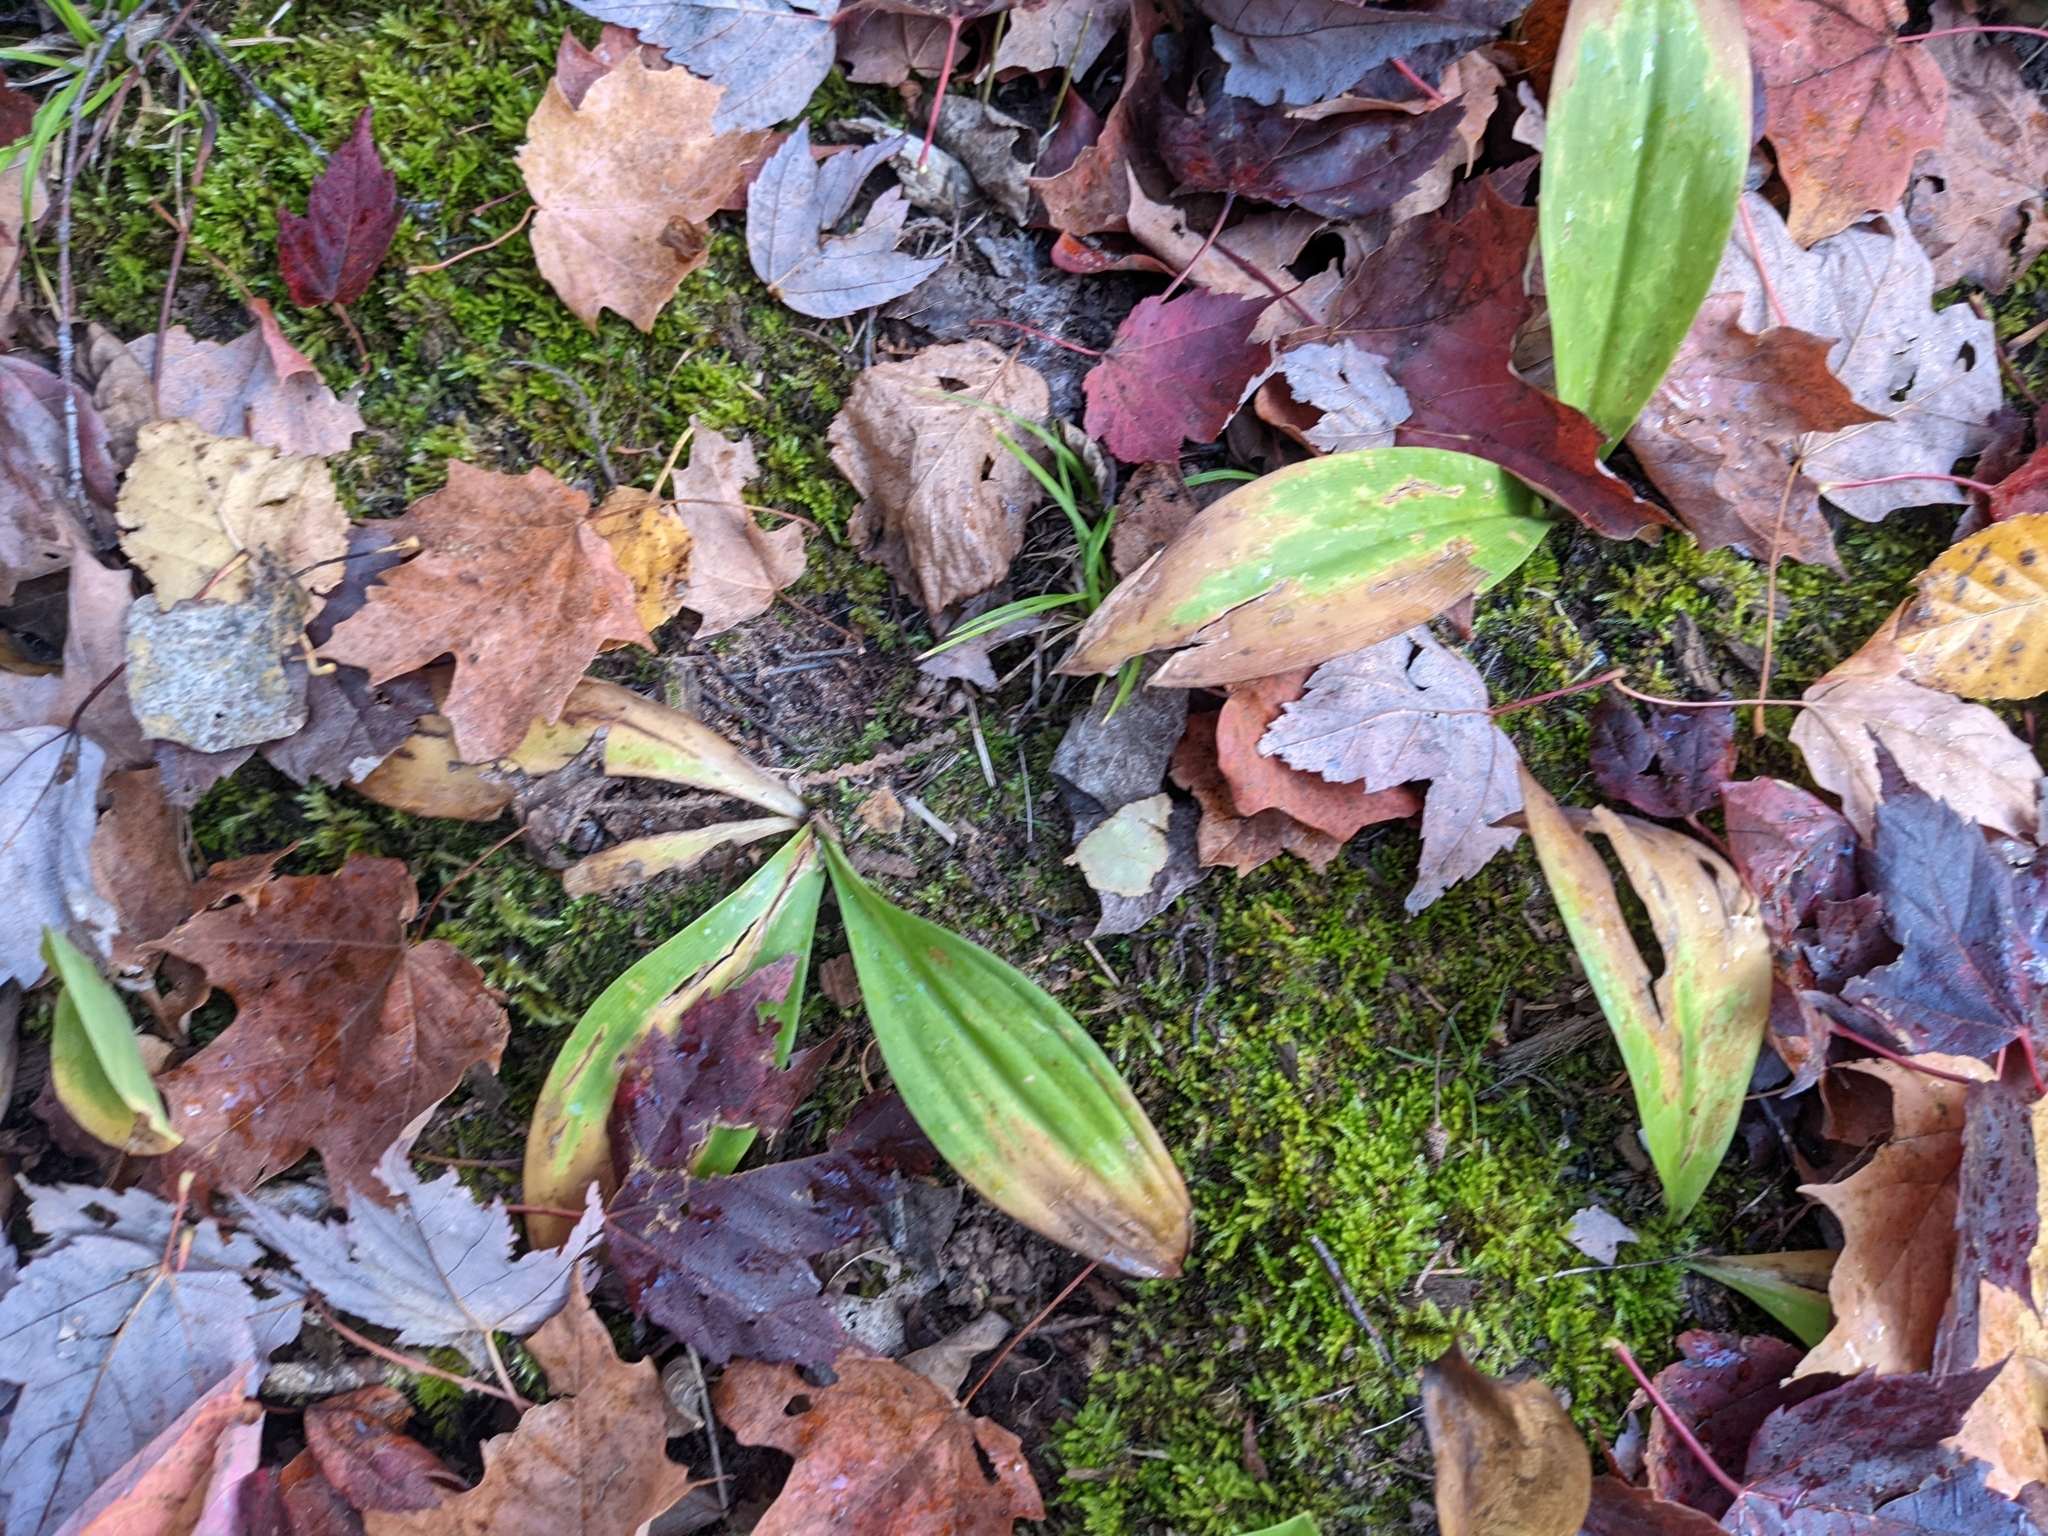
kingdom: Plantae
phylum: Tracheophyta
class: Liliopsida
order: Liliales
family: Liliaceae
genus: Clintonia
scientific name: Clintonia borealis
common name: Yellow clintonia
